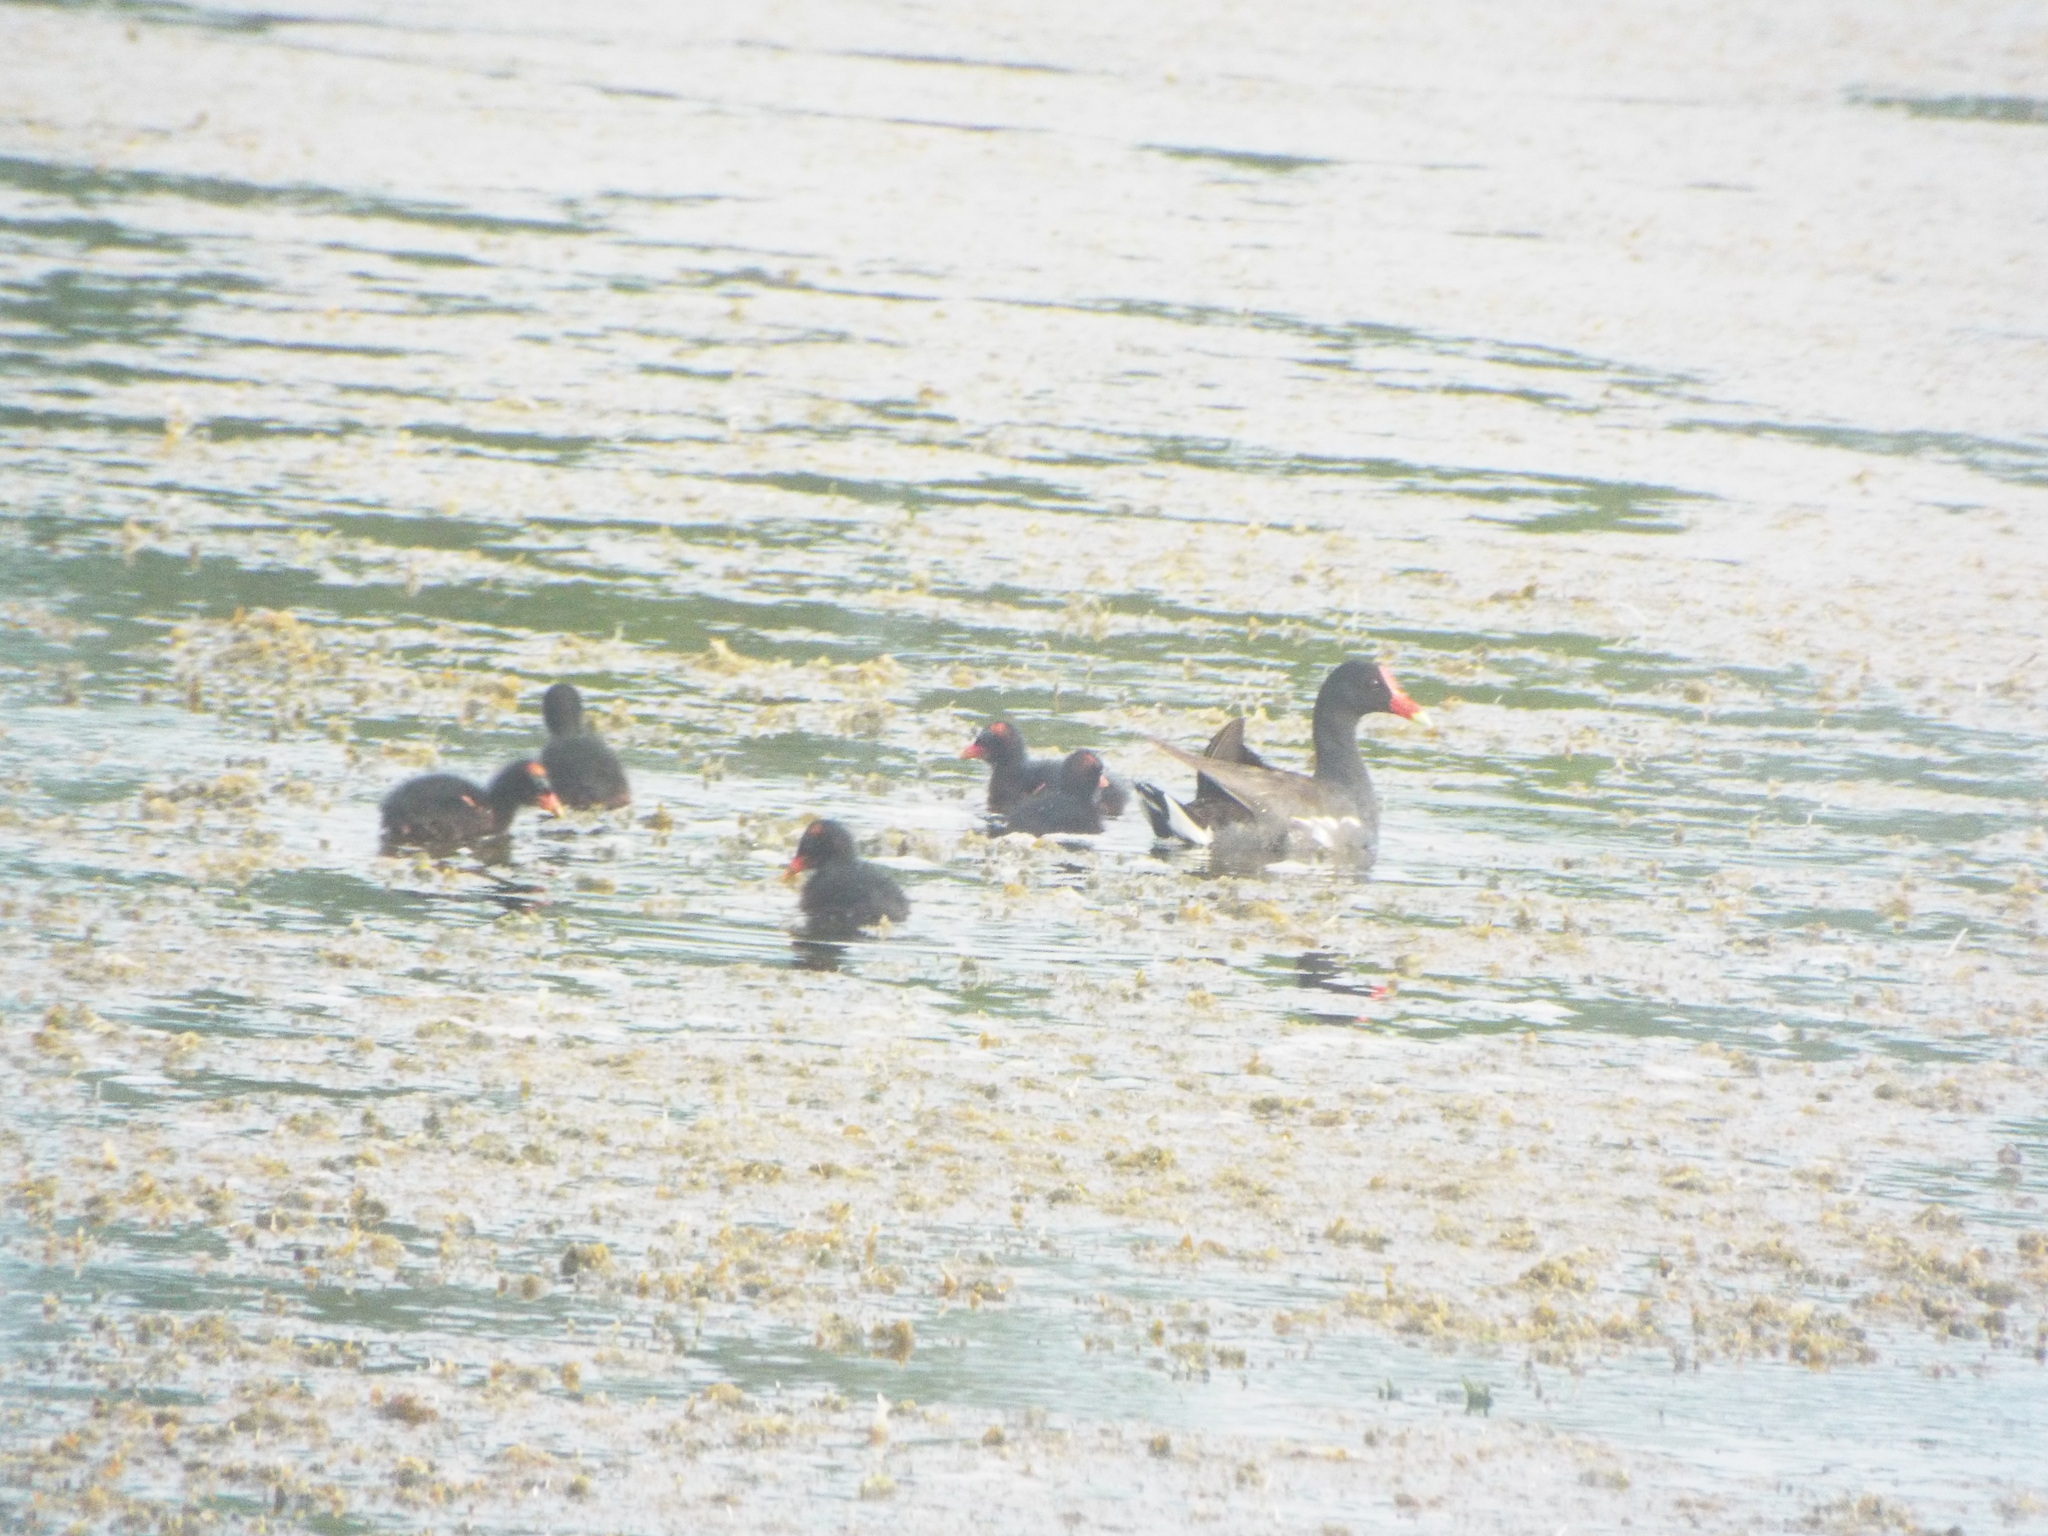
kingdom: Animalia
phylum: Chordata
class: Aves
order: Gruiformes
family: Rallidae
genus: Gallinula
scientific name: Gallinula chloropus
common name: Common moorhen
